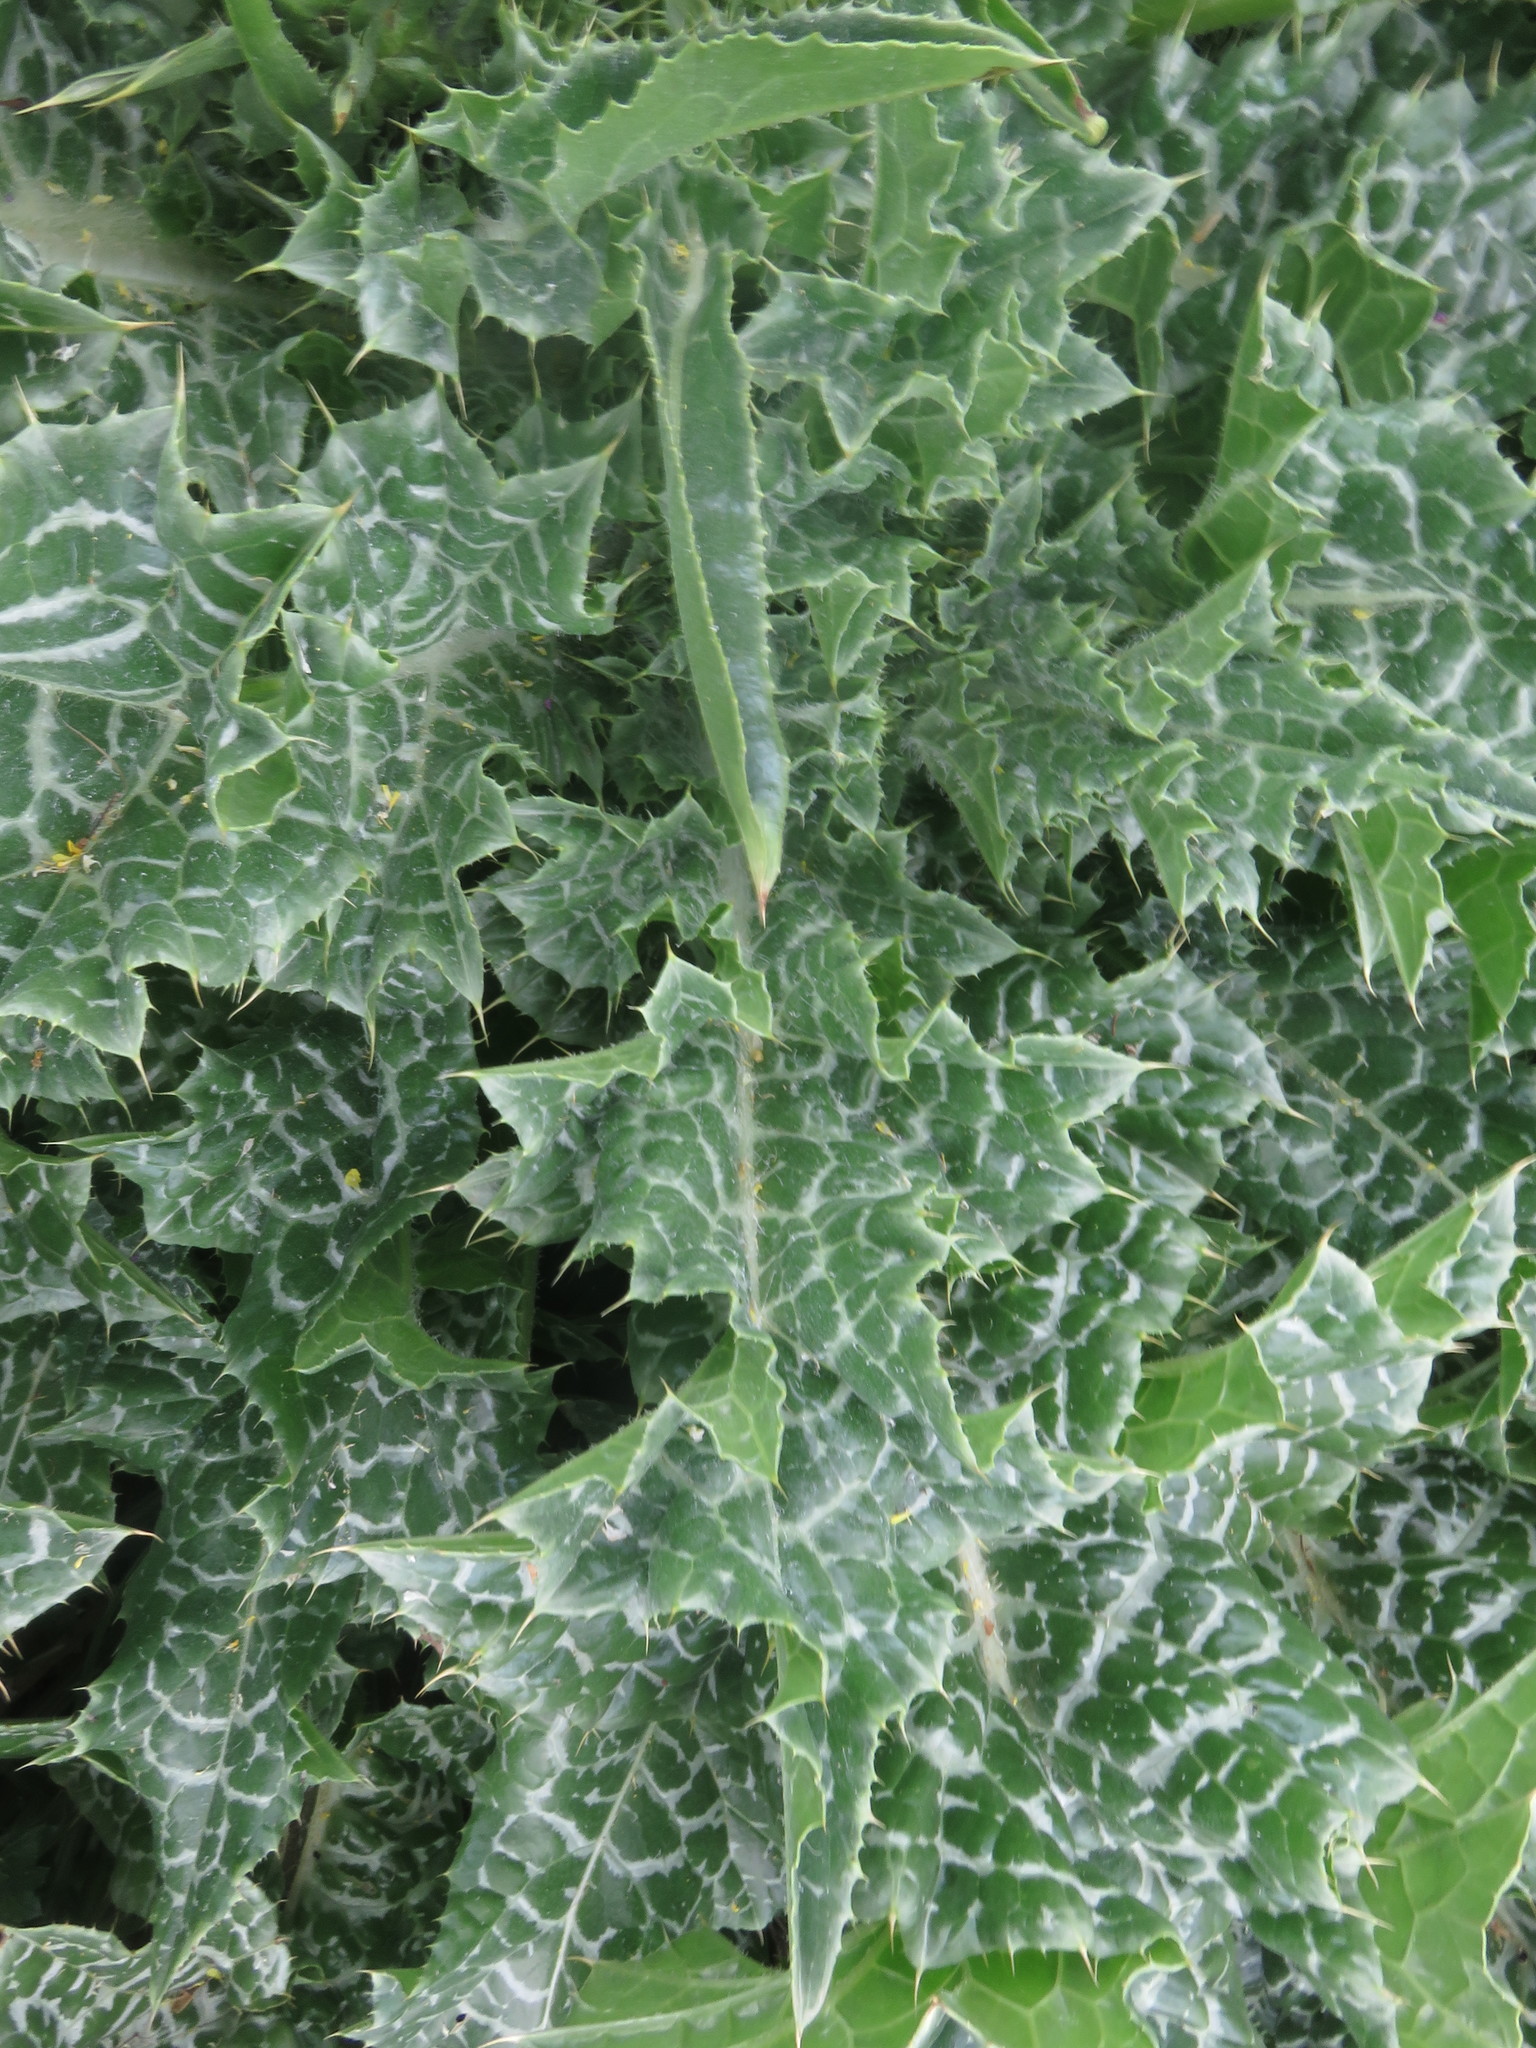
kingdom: Plantae
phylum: Tracheophyta
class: Magnoliopsida
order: Asterales
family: Asteraceae
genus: Silybum
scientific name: Silybum marianum
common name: Milk thistle
